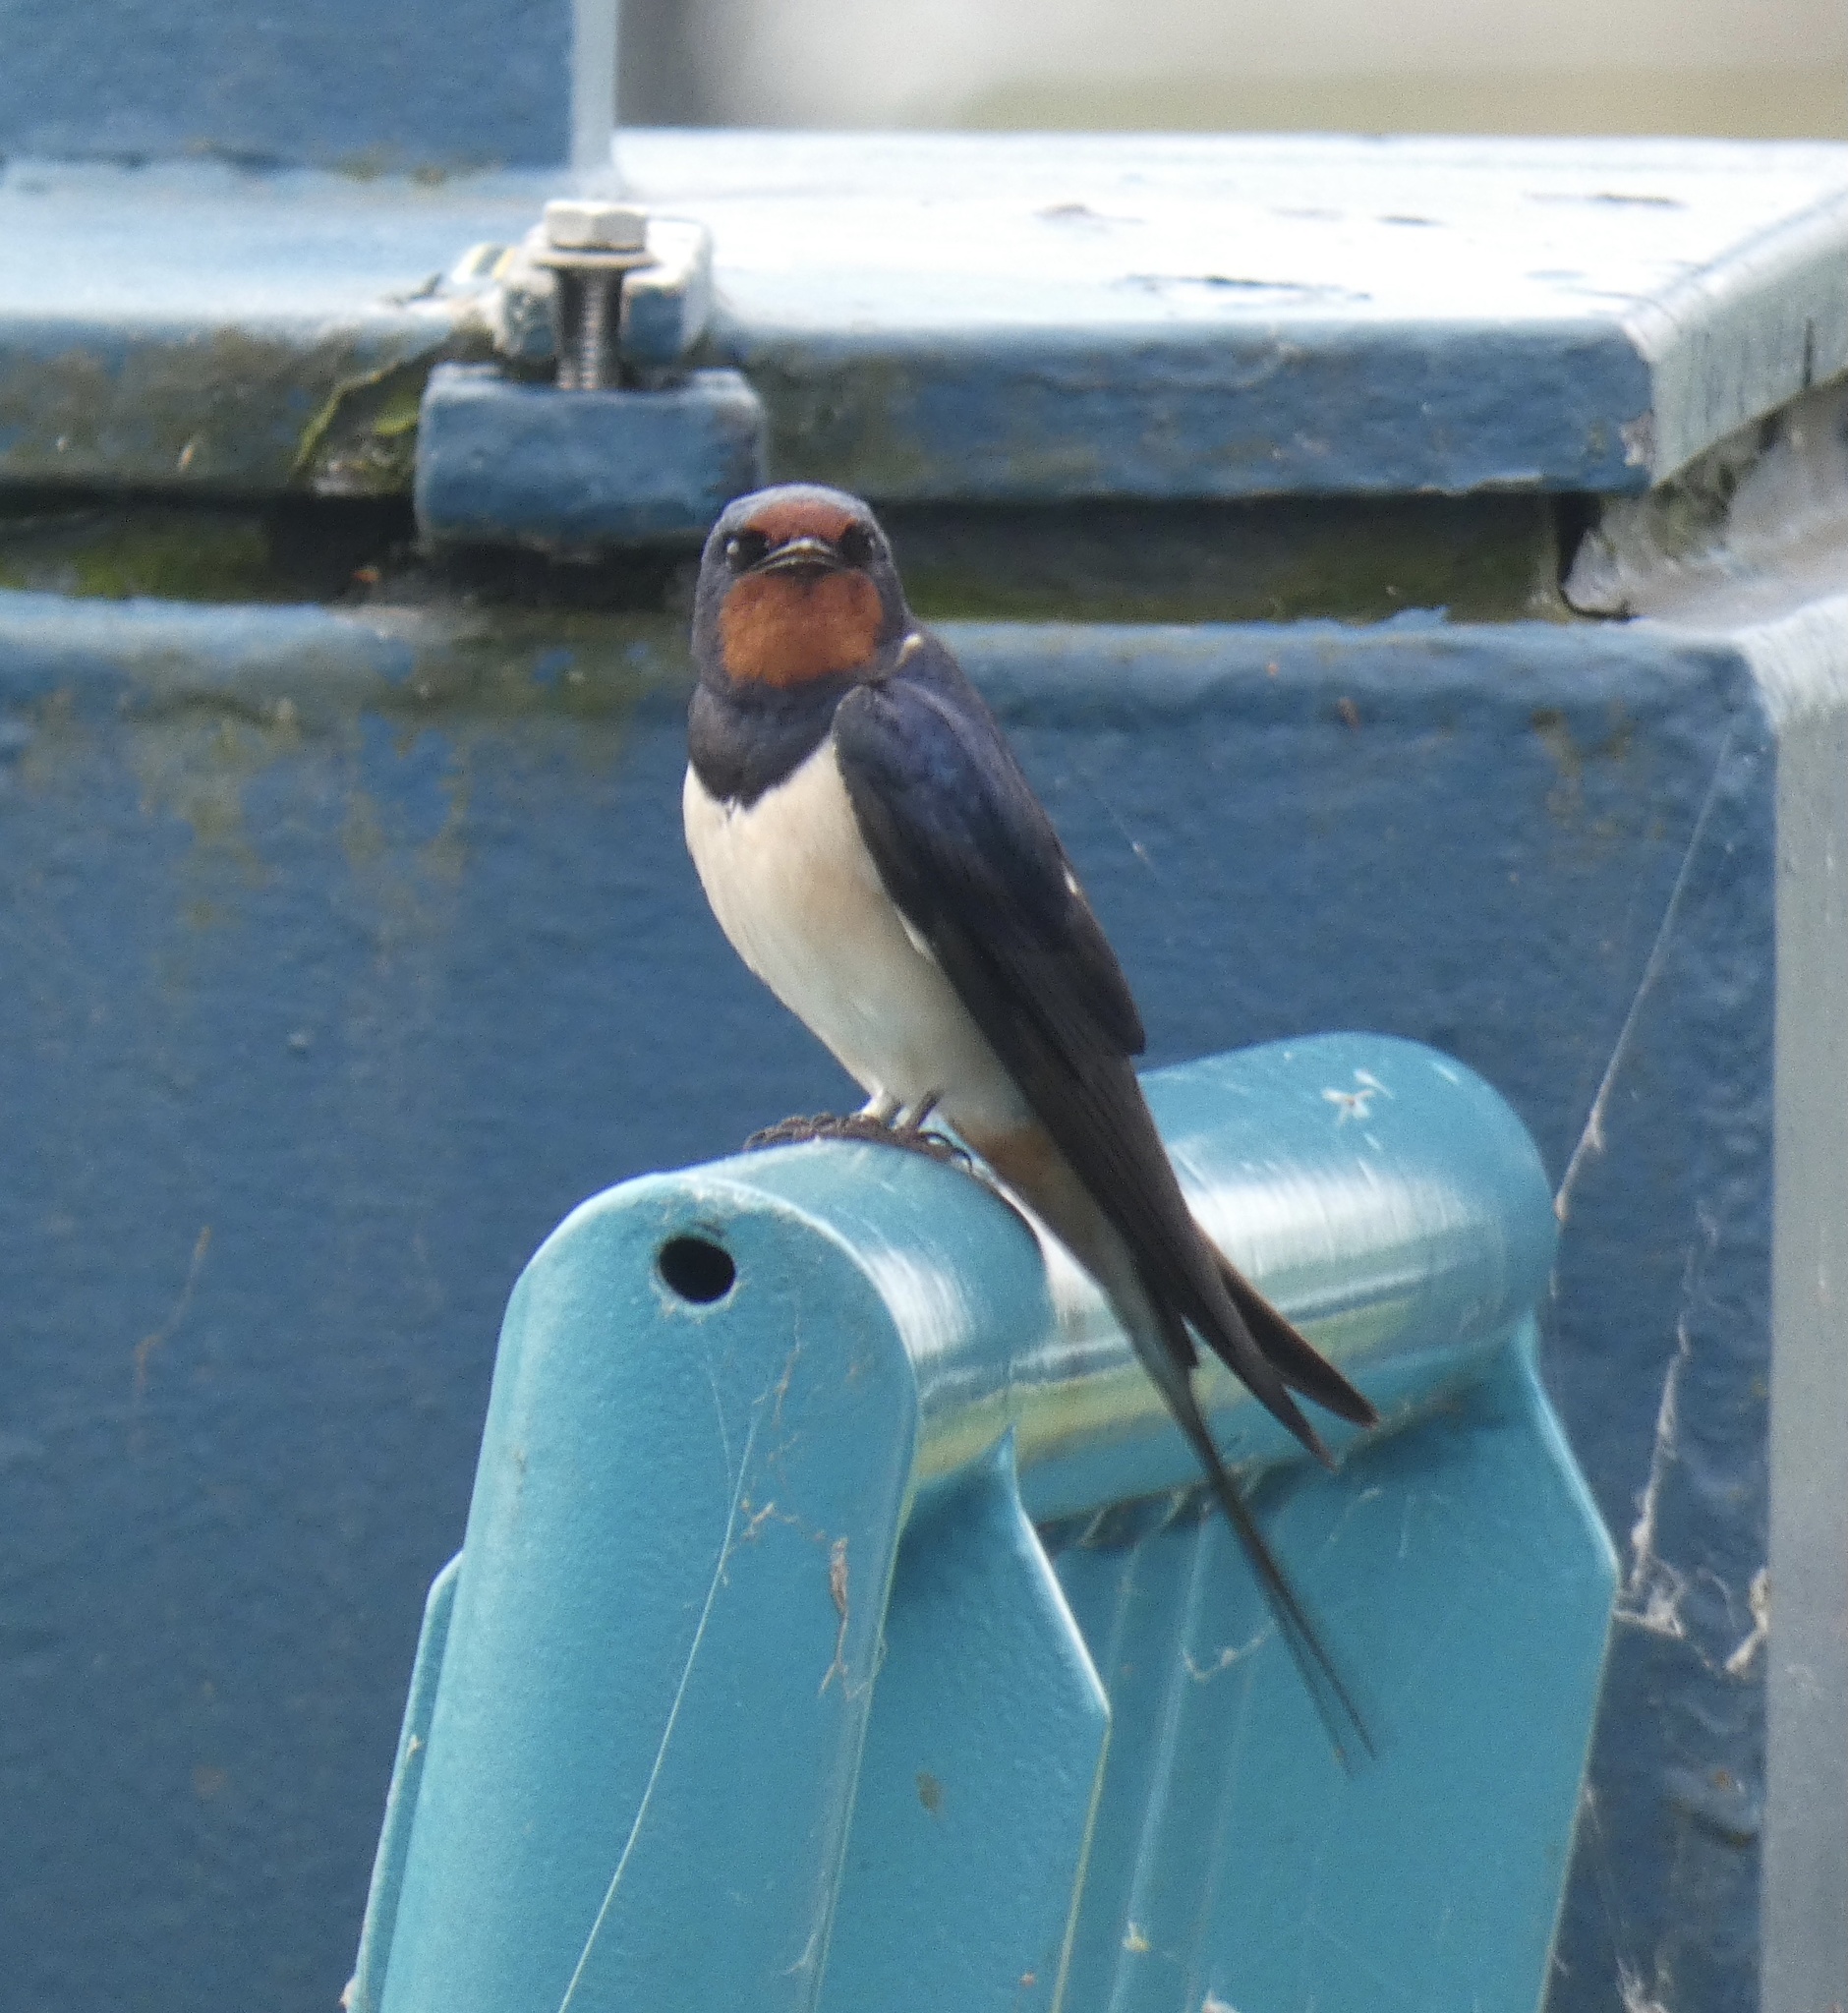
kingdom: Animalia
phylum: Chordata
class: Aves
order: Passeriformes
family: Hirundinidae
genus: Hirundo
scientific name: Hirundo rustica
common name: Barn swallow
